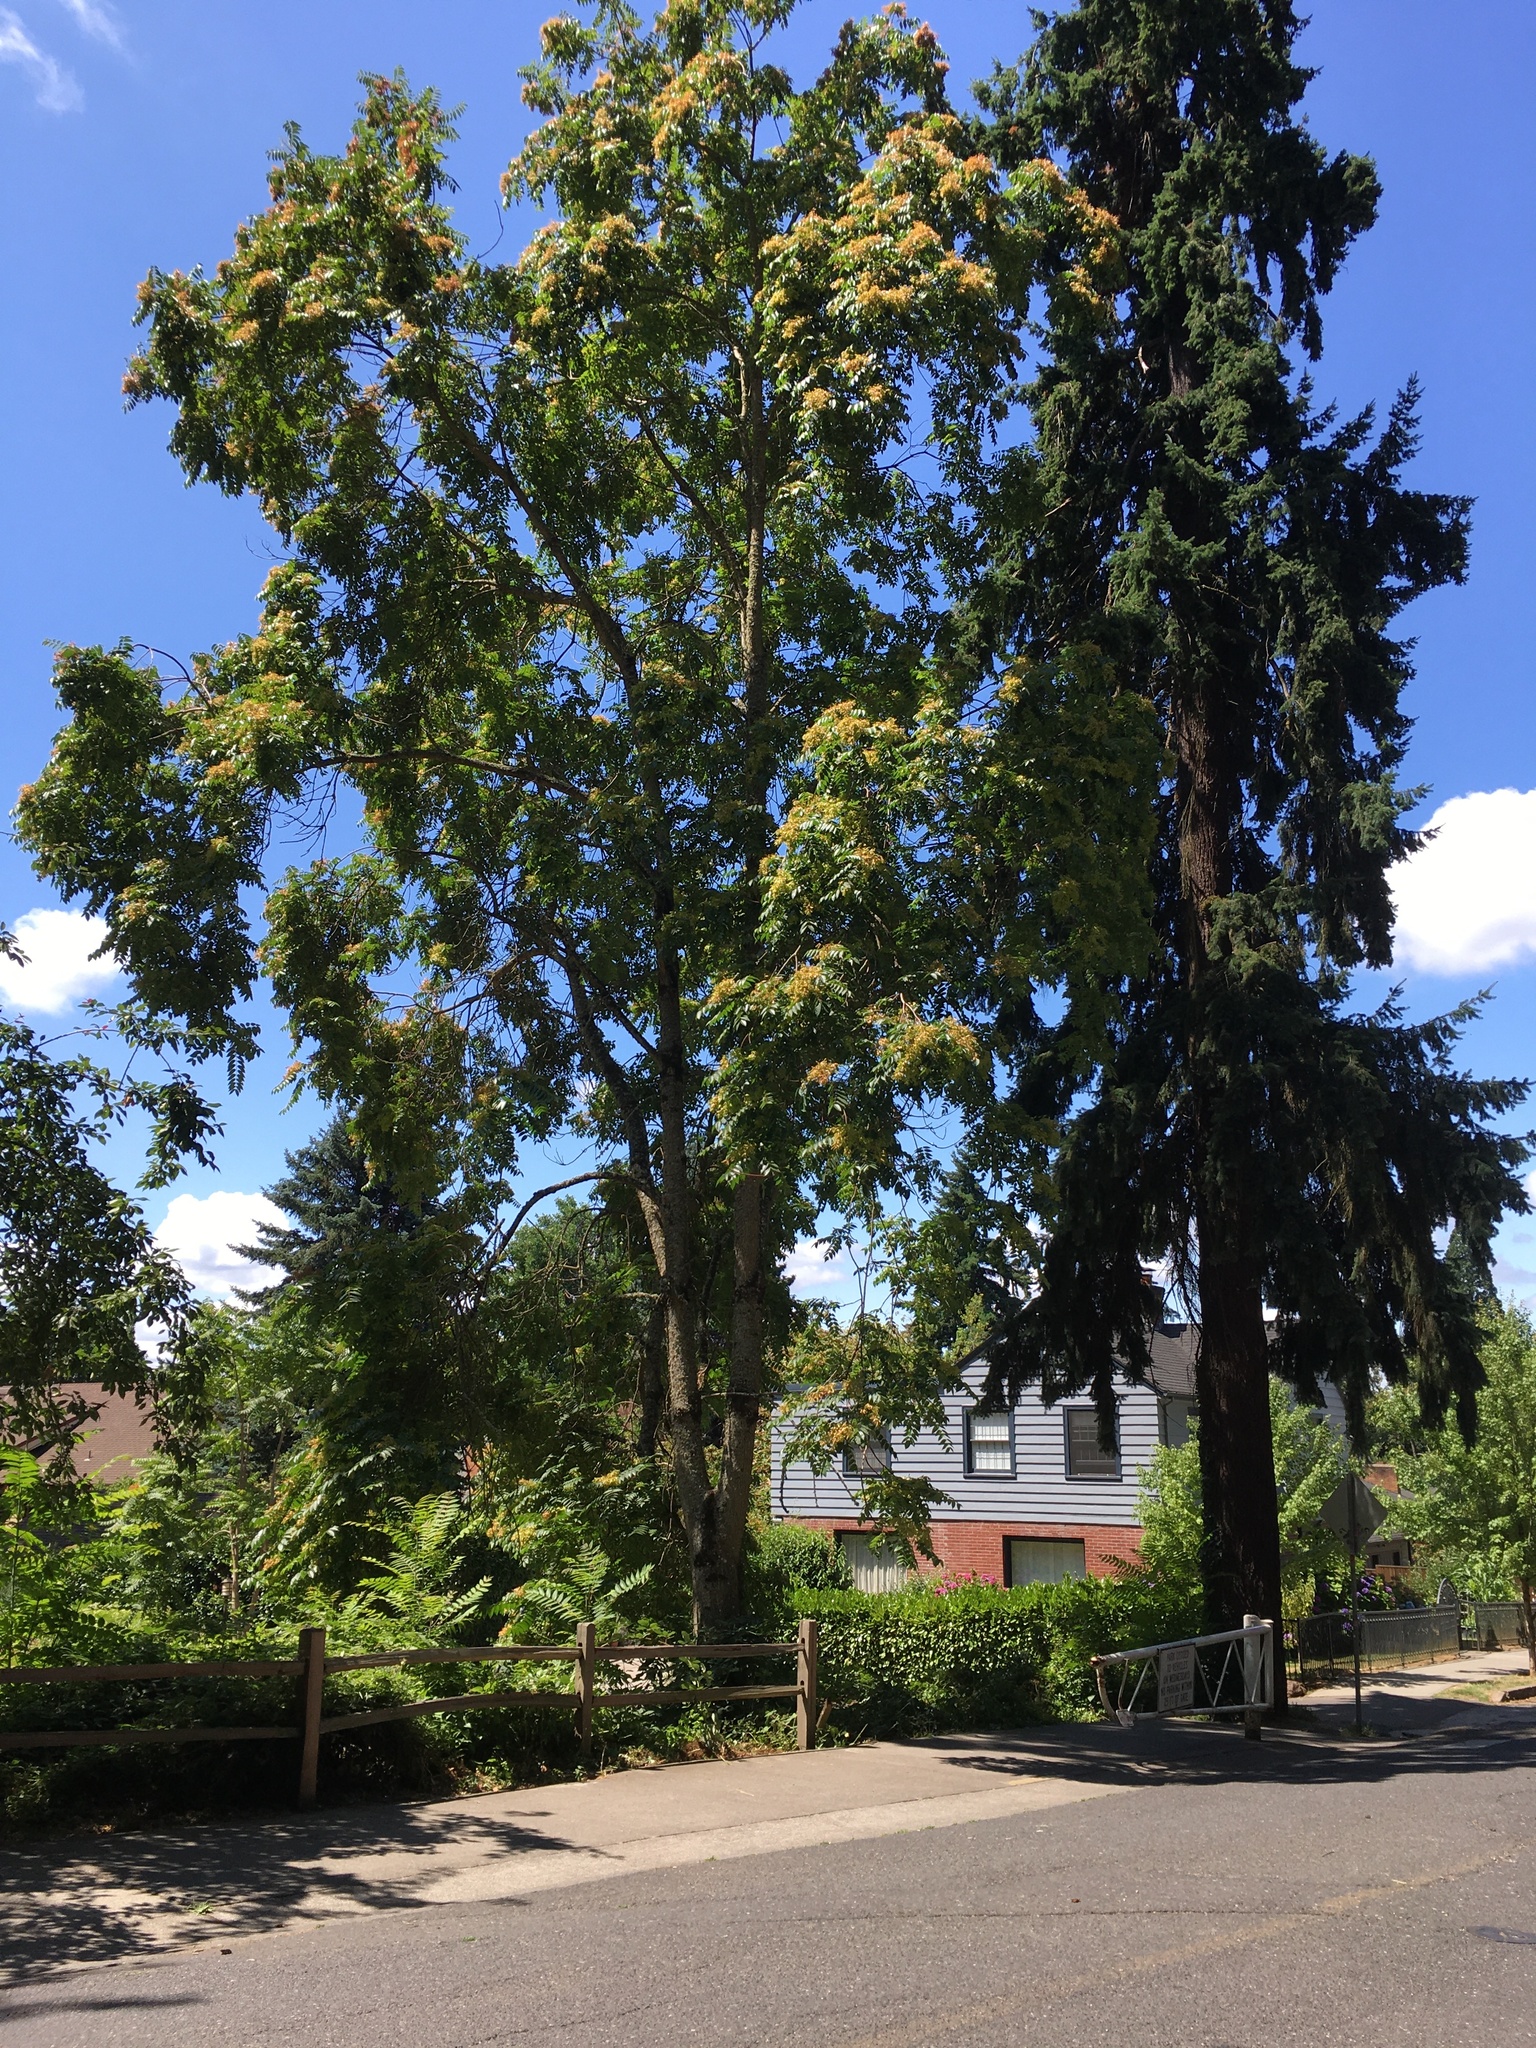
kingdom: Plantae
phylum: Tracheophyta
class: Magnoliopsida
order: Sapindales
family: Simaroubaceae
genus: Ailanthus
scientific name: Ailanthus altissima
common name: Tree-of-heaven
